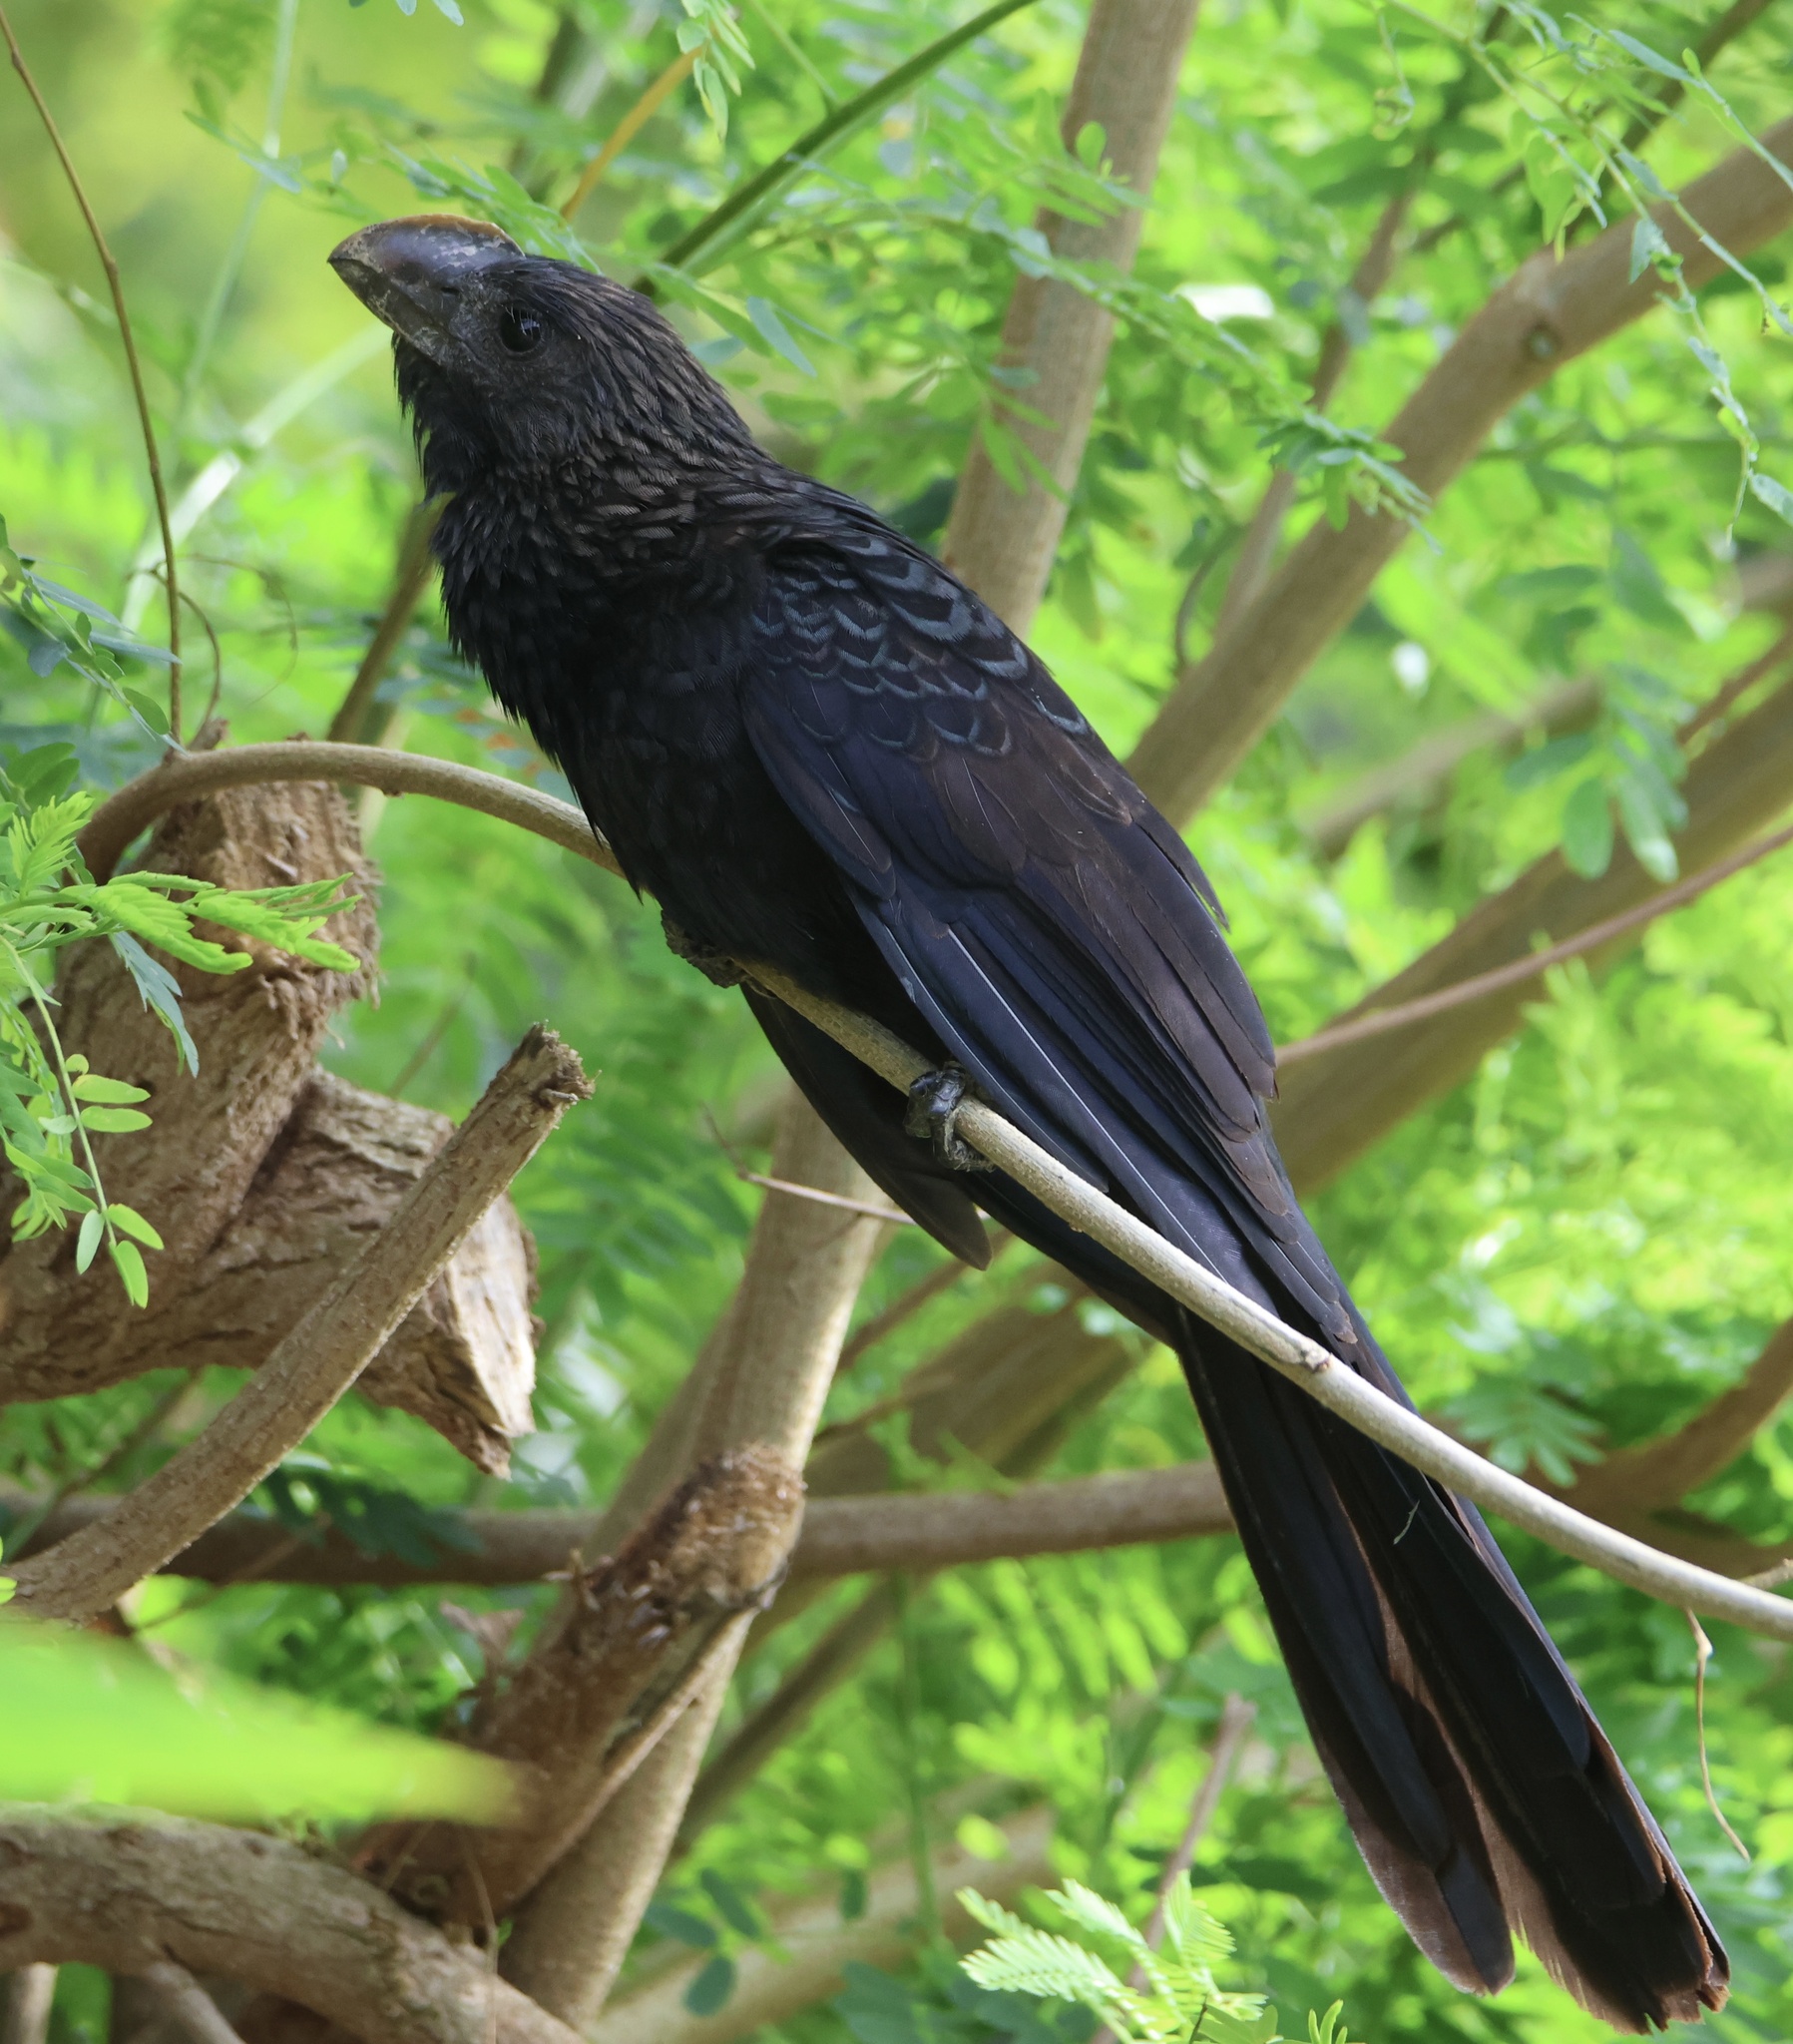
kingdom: Animalia
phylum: Chordata
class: Aves
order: Cuculiformes
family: Cuculidae
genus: Crotophaga
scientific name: Crotophaga ani
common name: Smooth-billed ani
